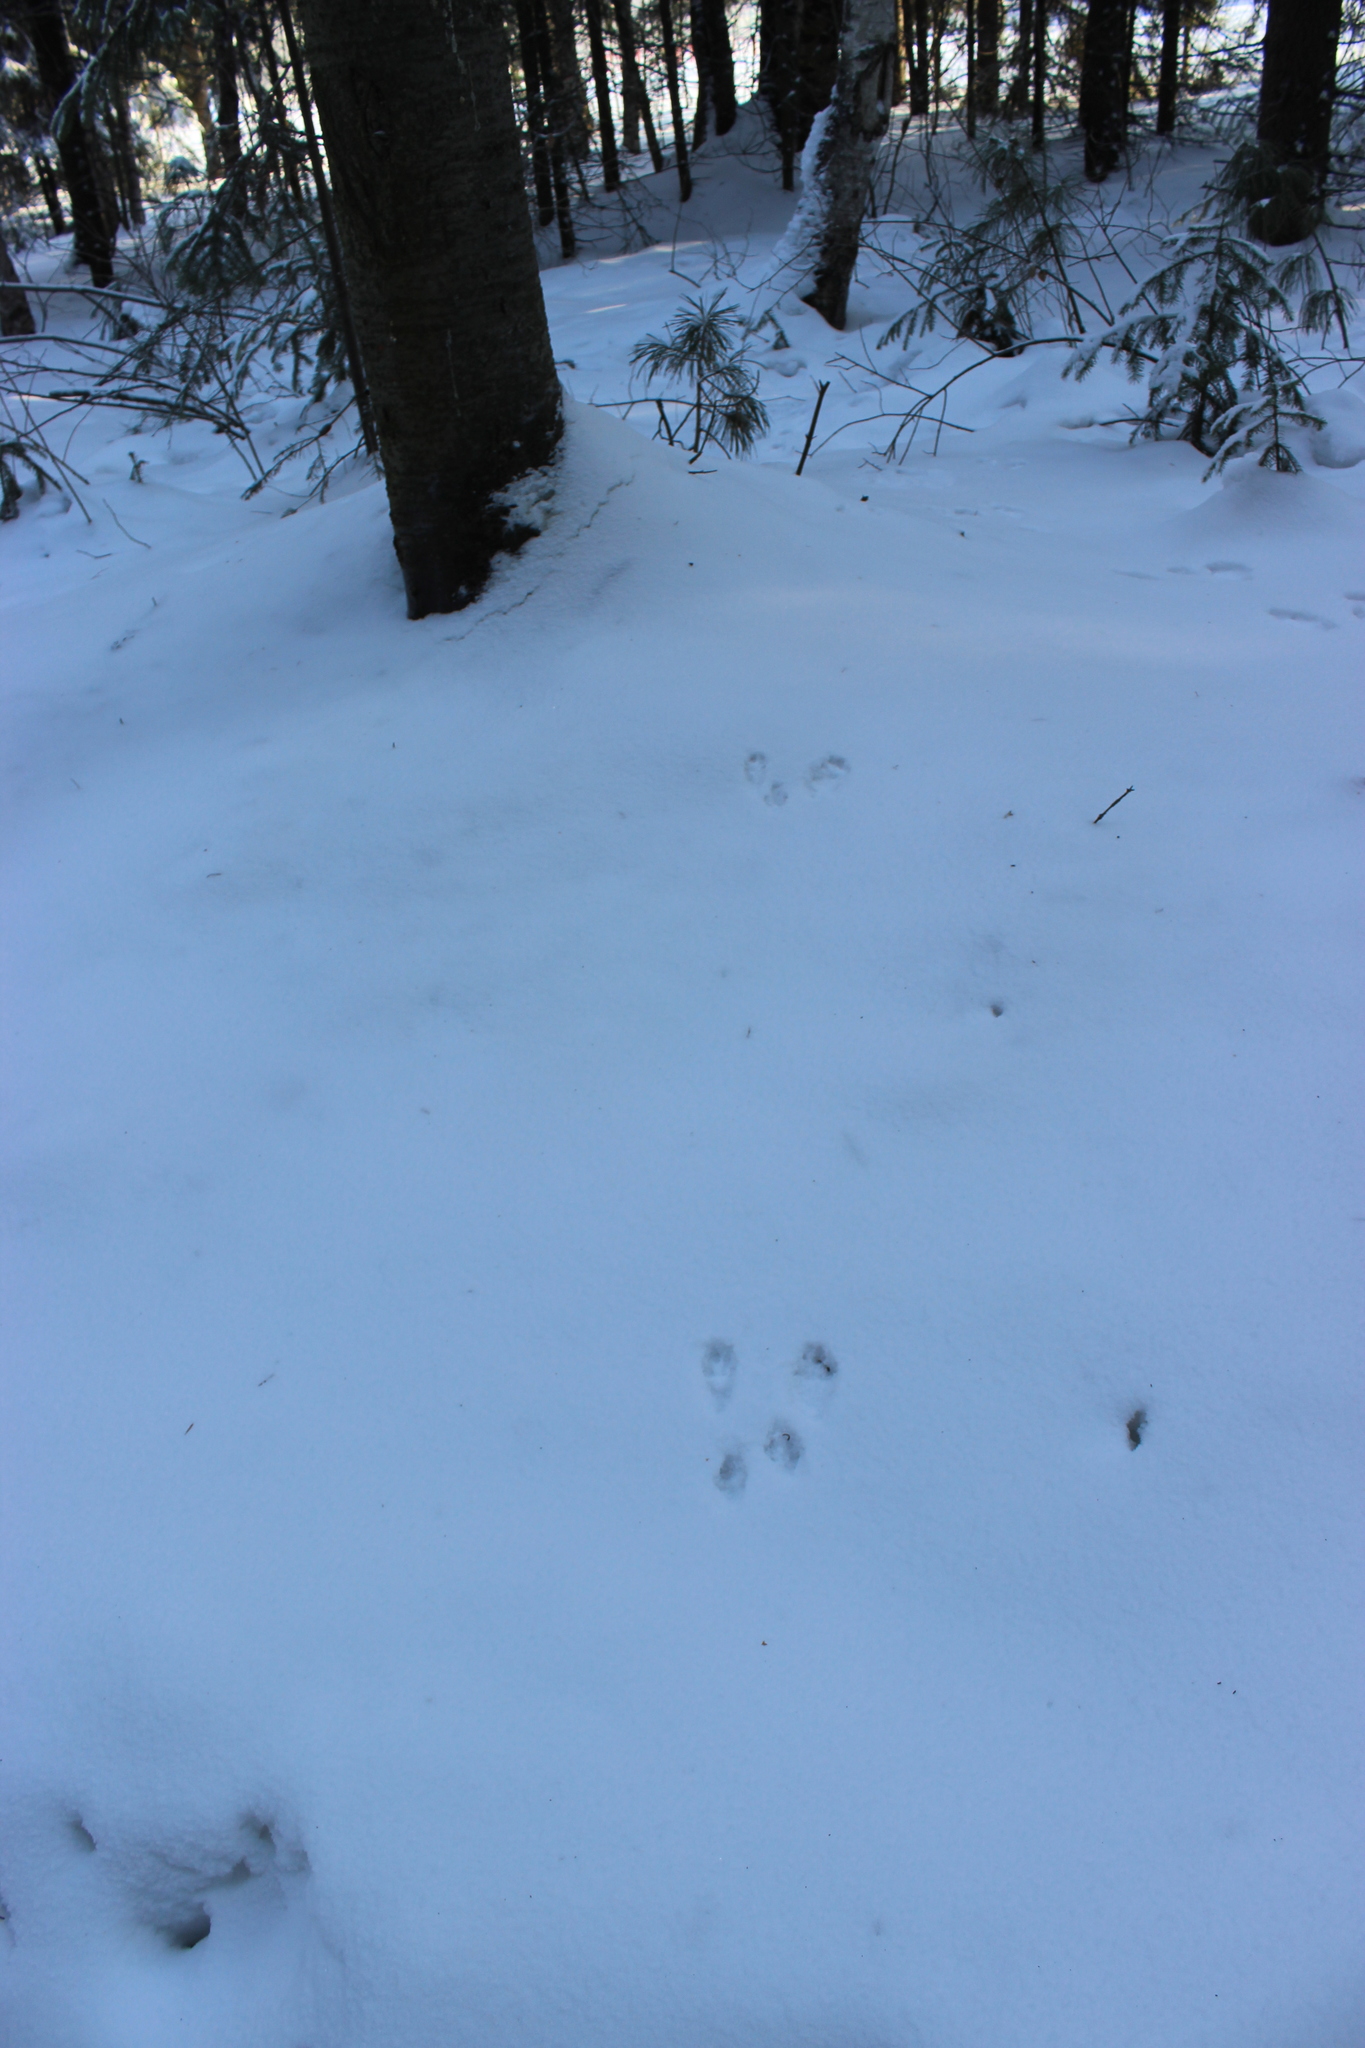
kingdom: Animalia
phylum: Chordata
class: Mammalia
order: Rodentia
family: Sciuridae
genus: Sciurus
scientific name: Sciurus vulgaris
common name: Eurasian red squirrel
